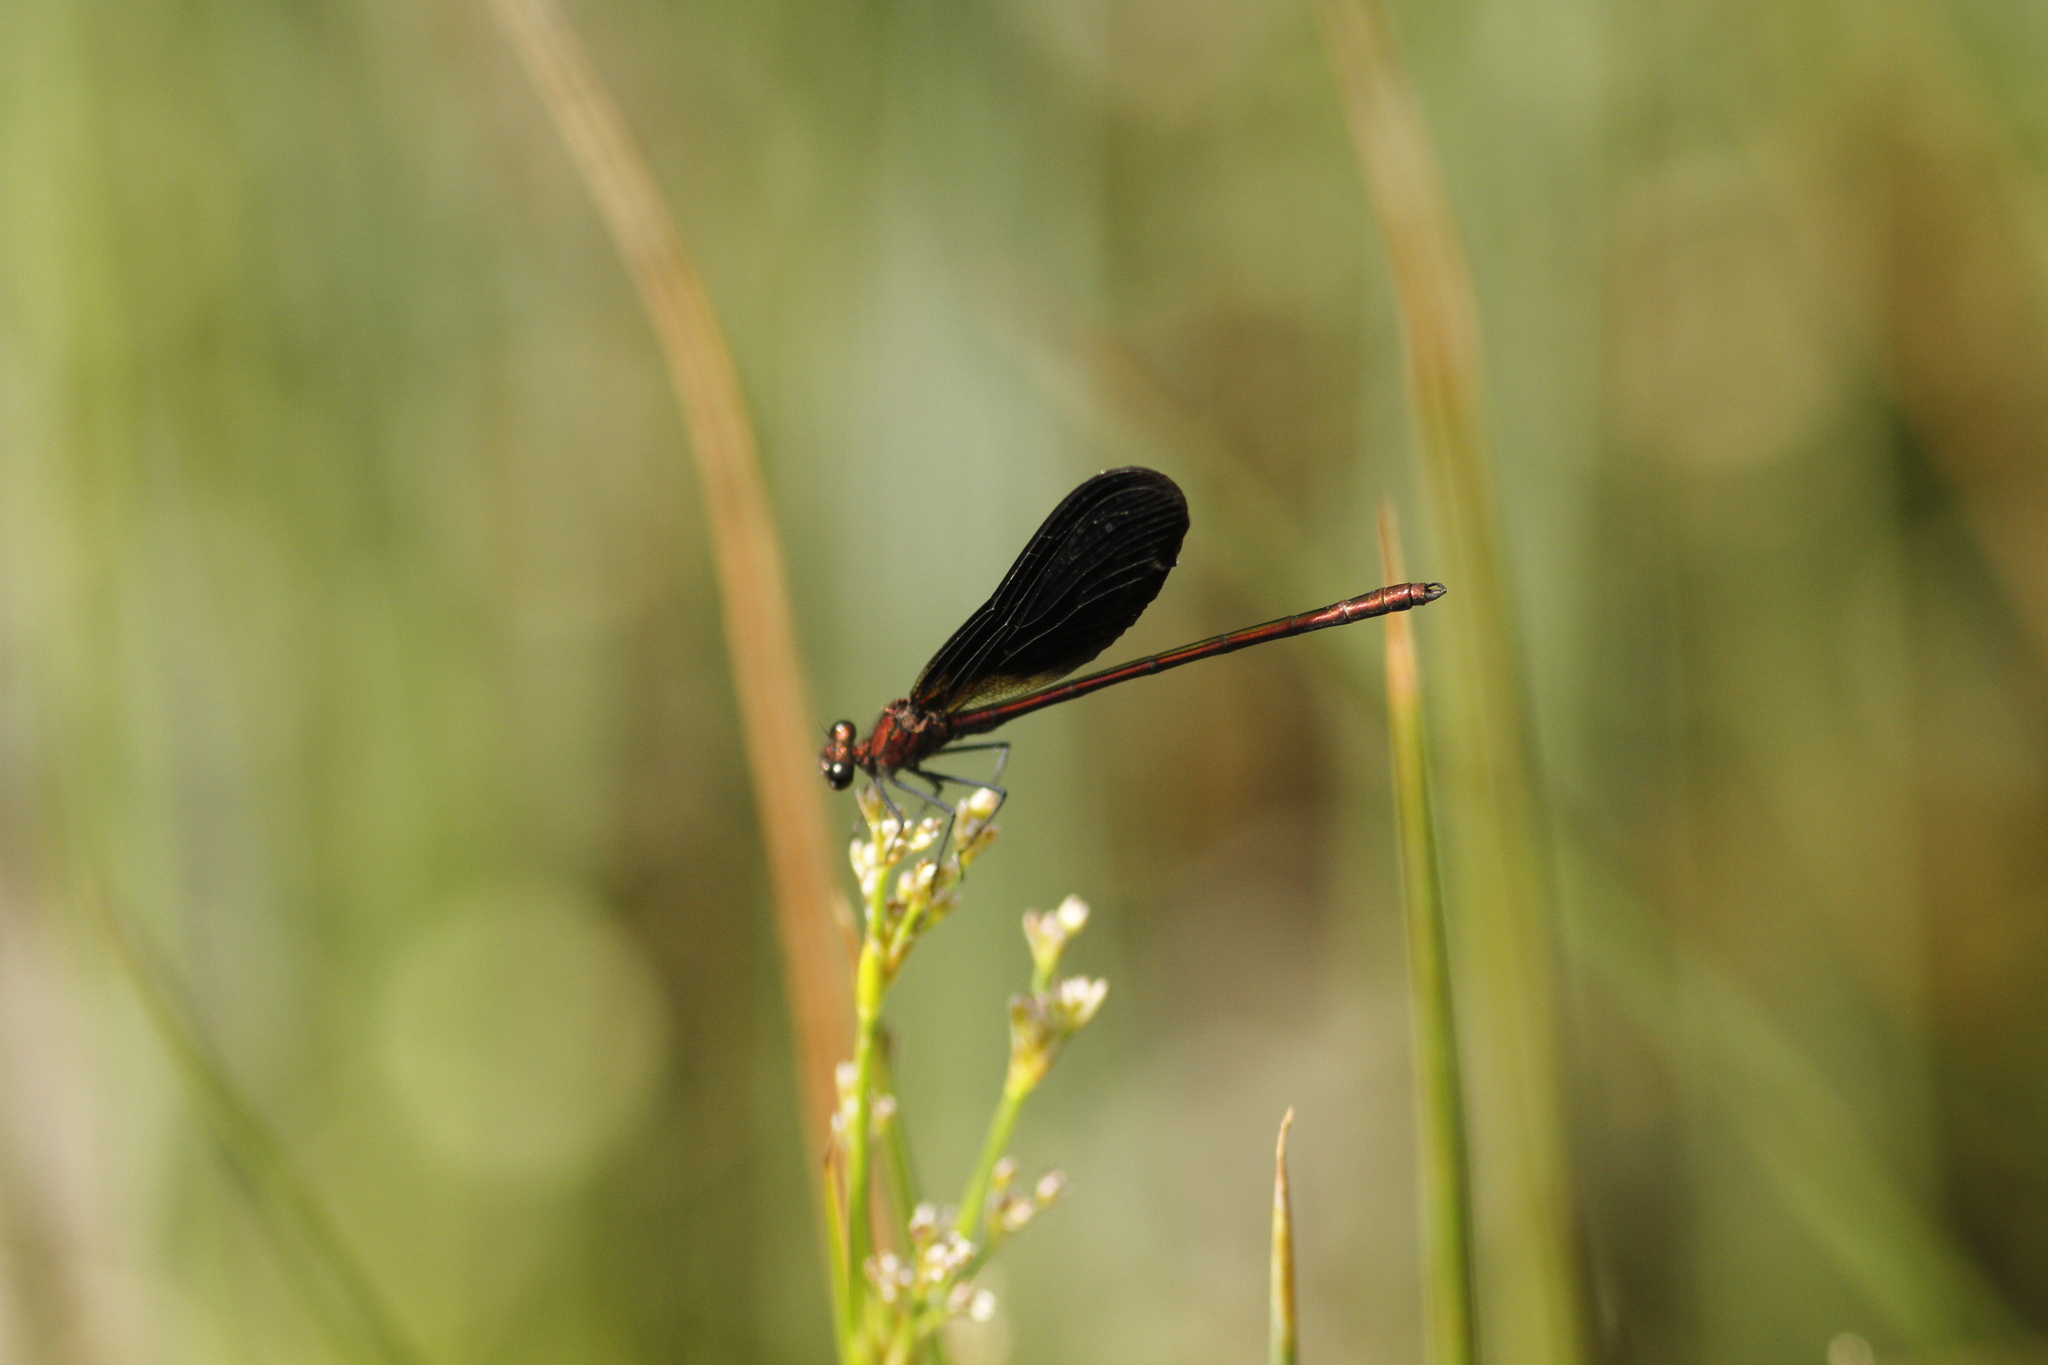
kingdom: Animalia
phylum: Arthropoda
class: Insecta
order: Odonata
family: Calopterygidae
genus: Calopteryx
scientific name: Calopteryx haemorrhoidalis
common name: Copper demoiselle
